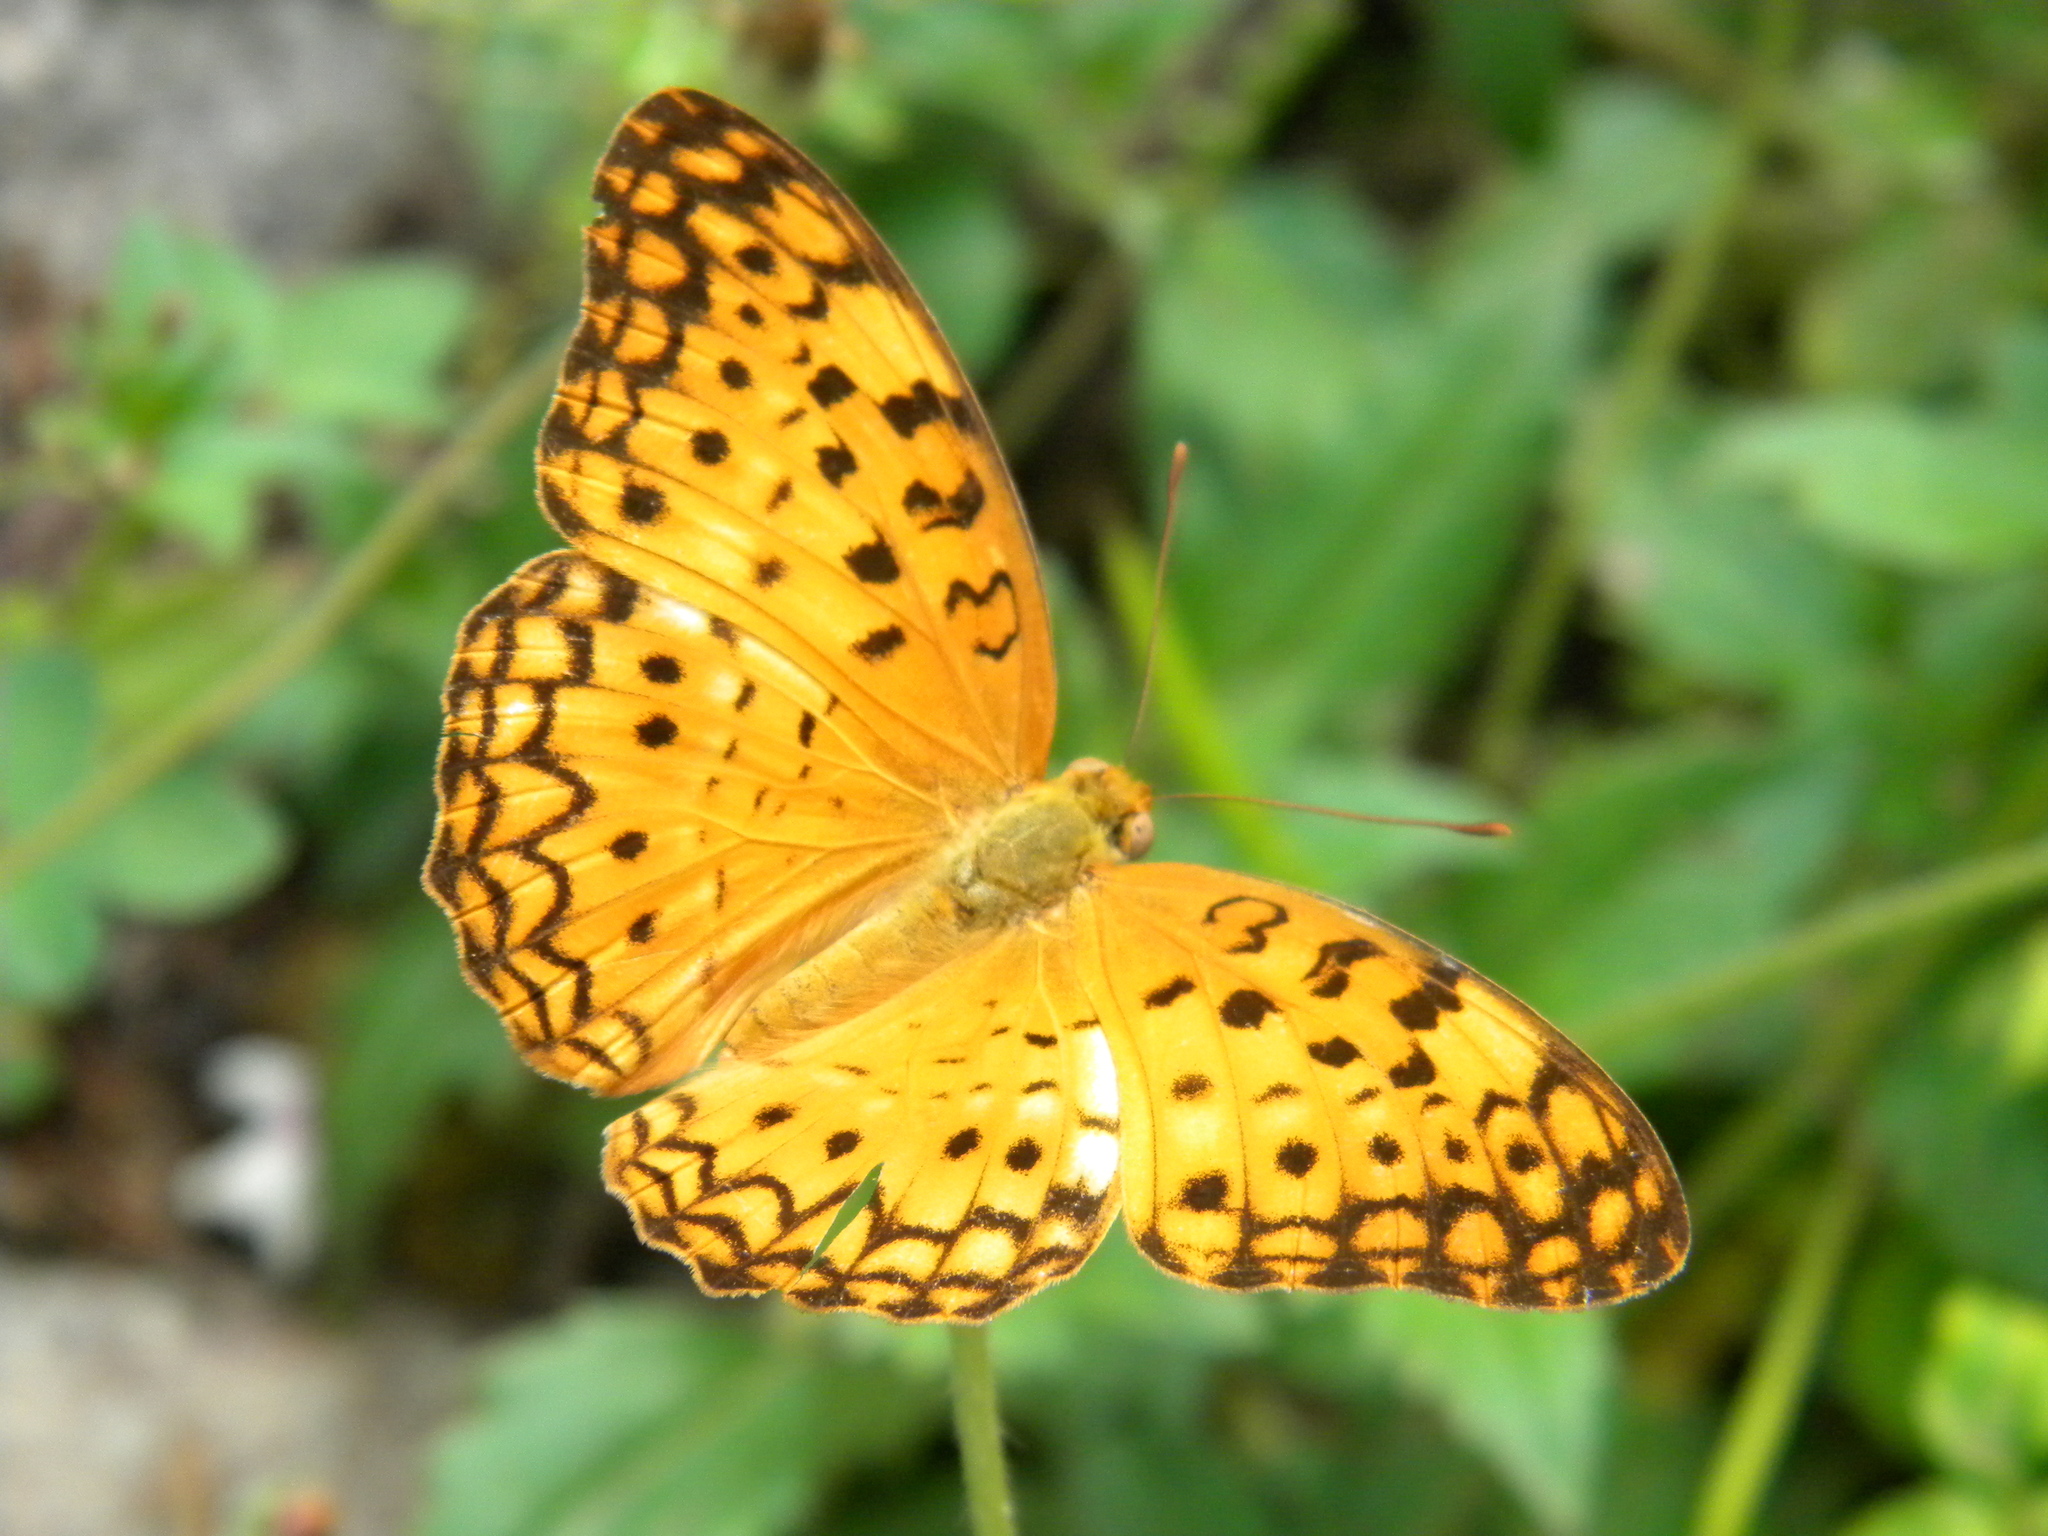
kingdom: Animalia
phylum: Arthropoda
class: Insecta
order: Lepidoptera
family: Nymphalidae
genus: Phalanta
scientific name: Phalanta phalantha
